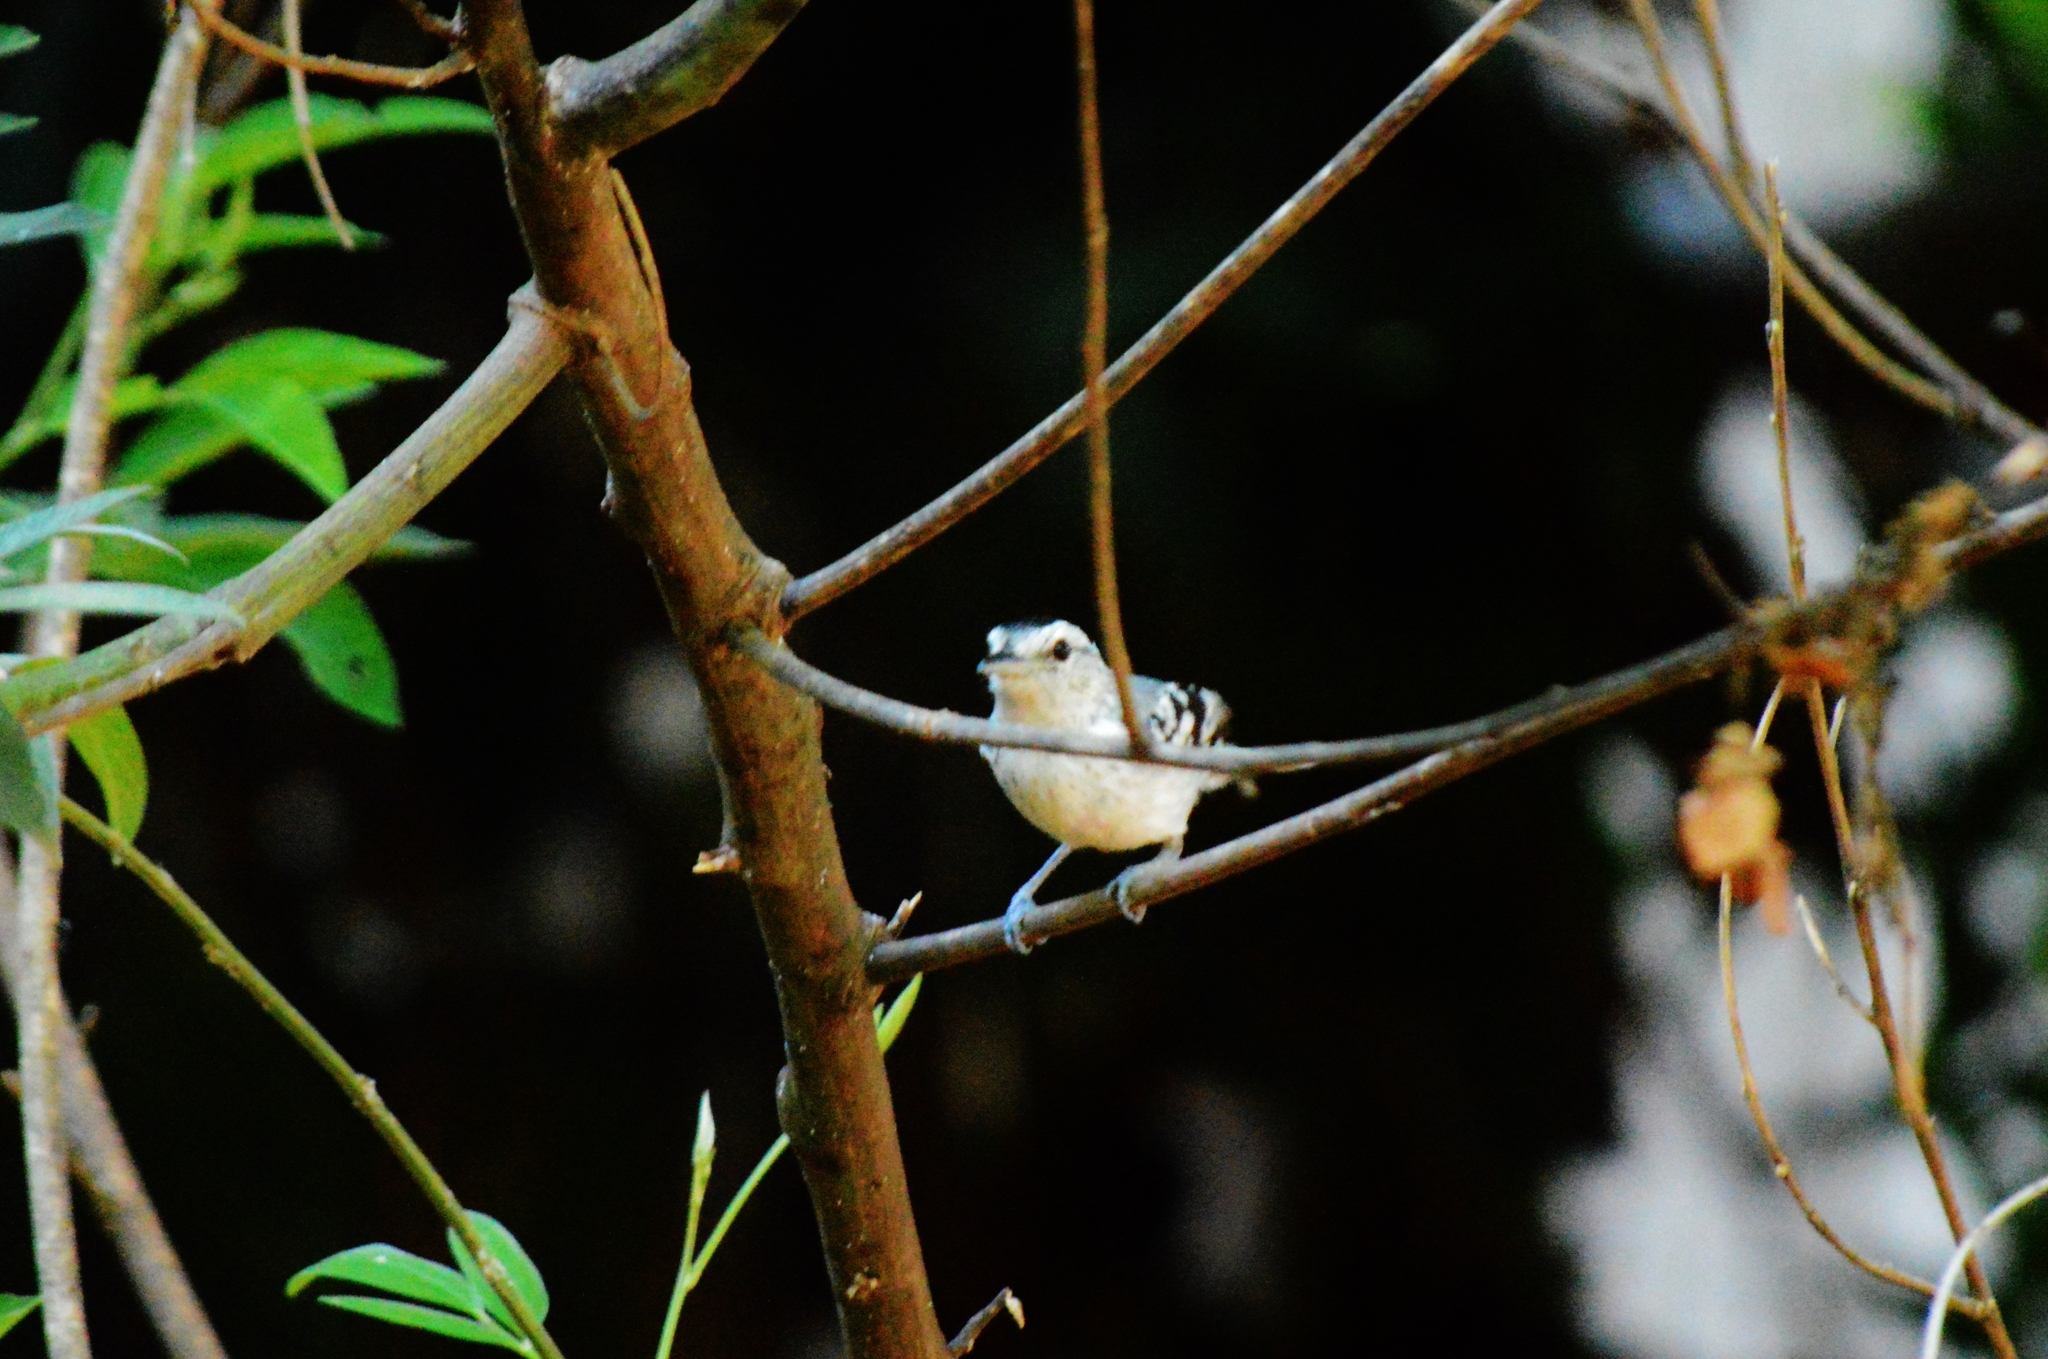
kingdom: Animalia
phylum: Chordata
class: Aves
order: Passeriformes
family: Thamnophilidae
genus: Herpsilochmus
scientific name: Herpsilochmus atricapillus
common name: Black-capped antwren
